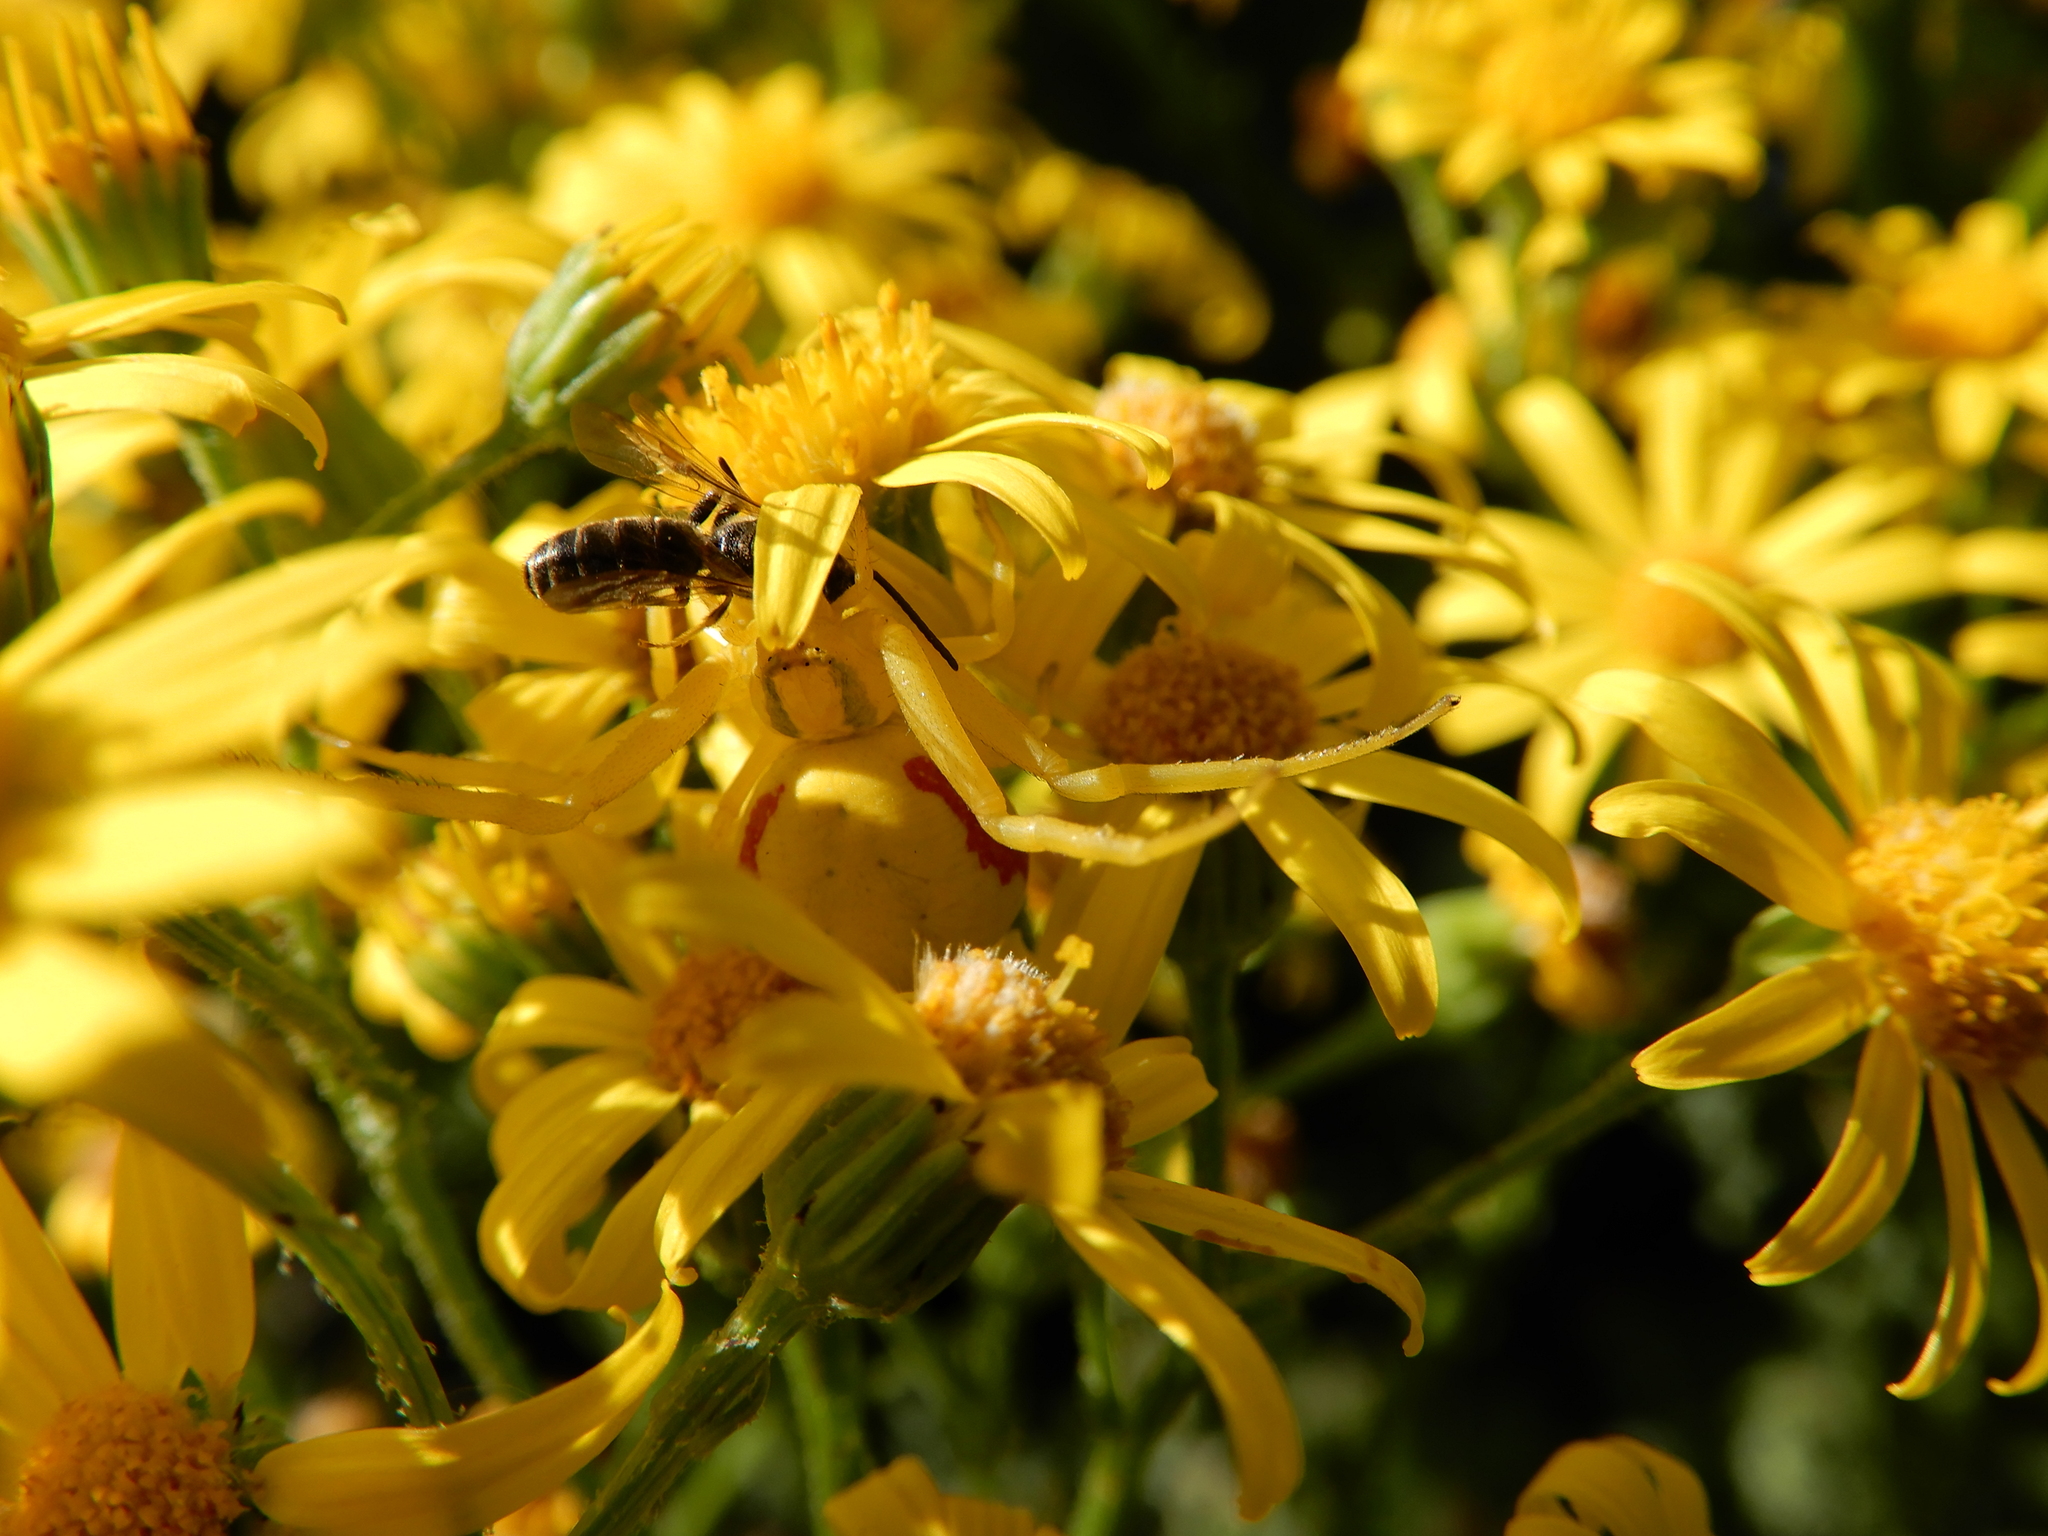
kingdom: Animalia
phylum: Arthropoda
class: Arachnida
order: Araneae
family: Thomisidae
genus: Misumena
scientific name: Misumena vatia
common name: Goldenrod crab spider
